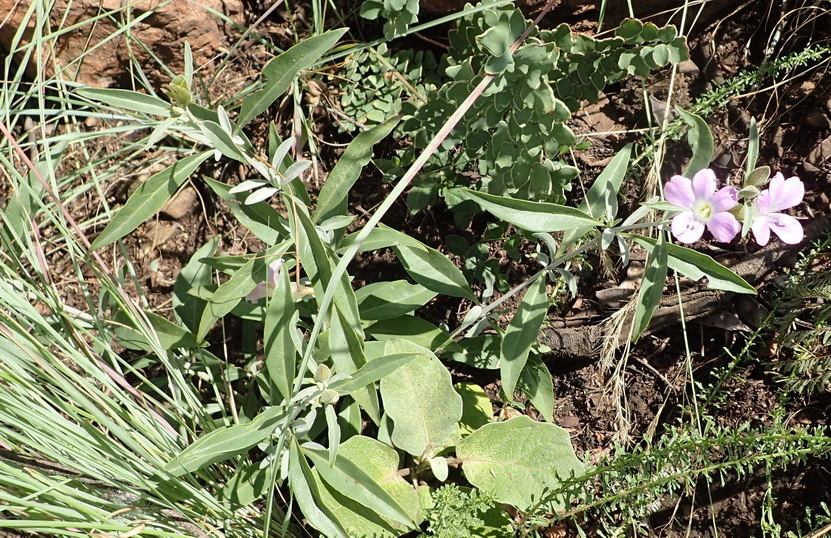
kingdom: Plantae
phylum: Tracheophyta
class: Magnoliopsida
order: Lamiales
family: Acanthaceae
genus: Barleria
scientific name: Barleria lancifolia
